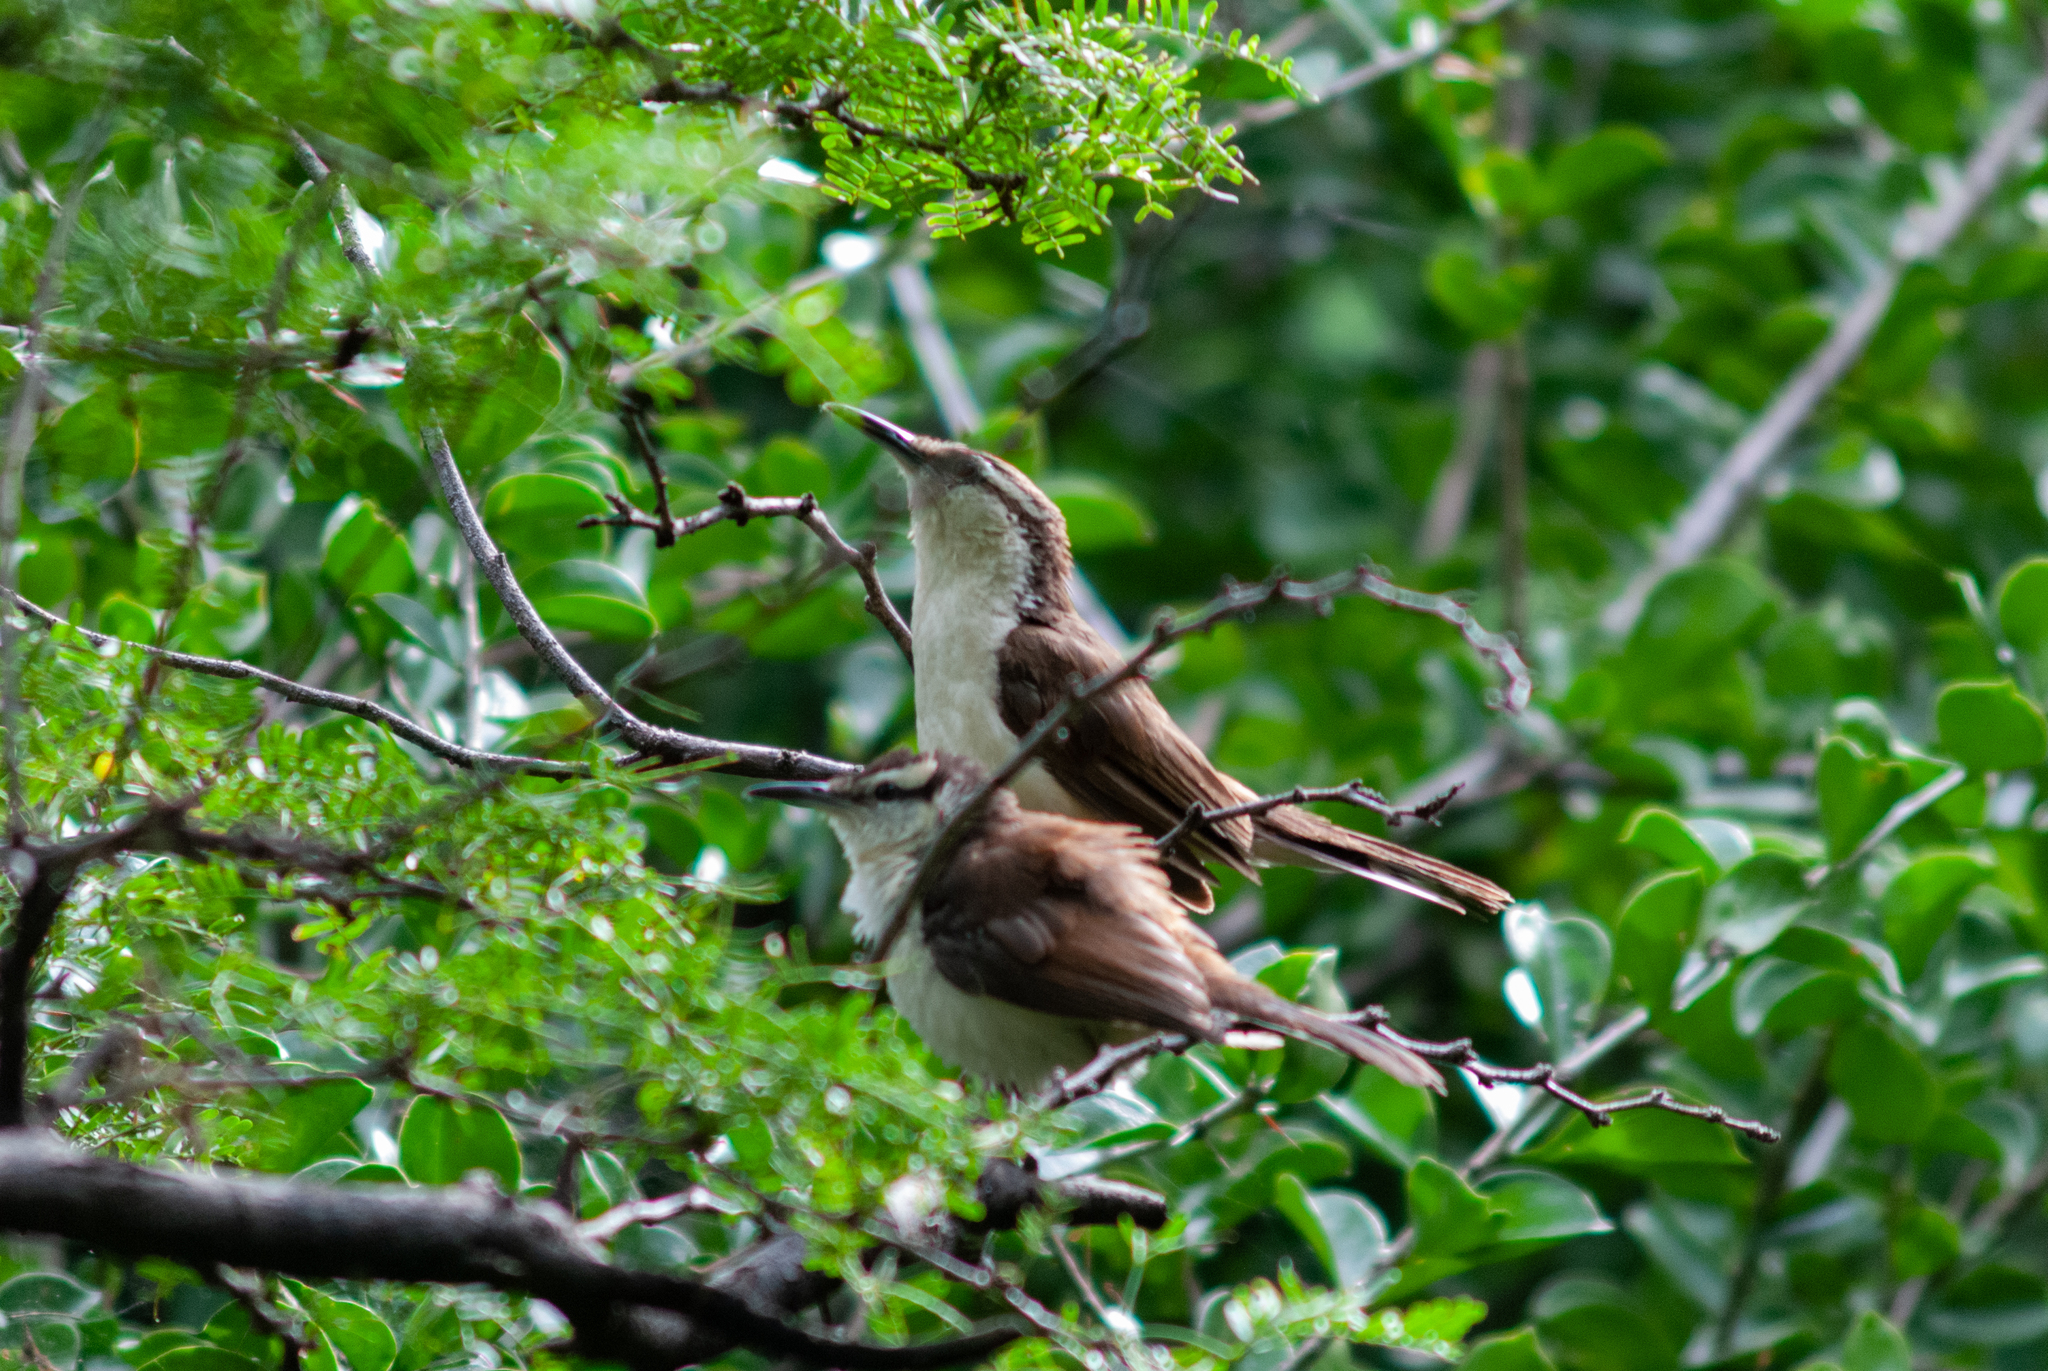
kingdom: Animalia
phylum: Chordata
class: Aves
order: Passeriformes
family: Troglodytidae
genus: Campylorhynchus
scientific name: Campylorhynchus griseus
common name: Bicolored wren
